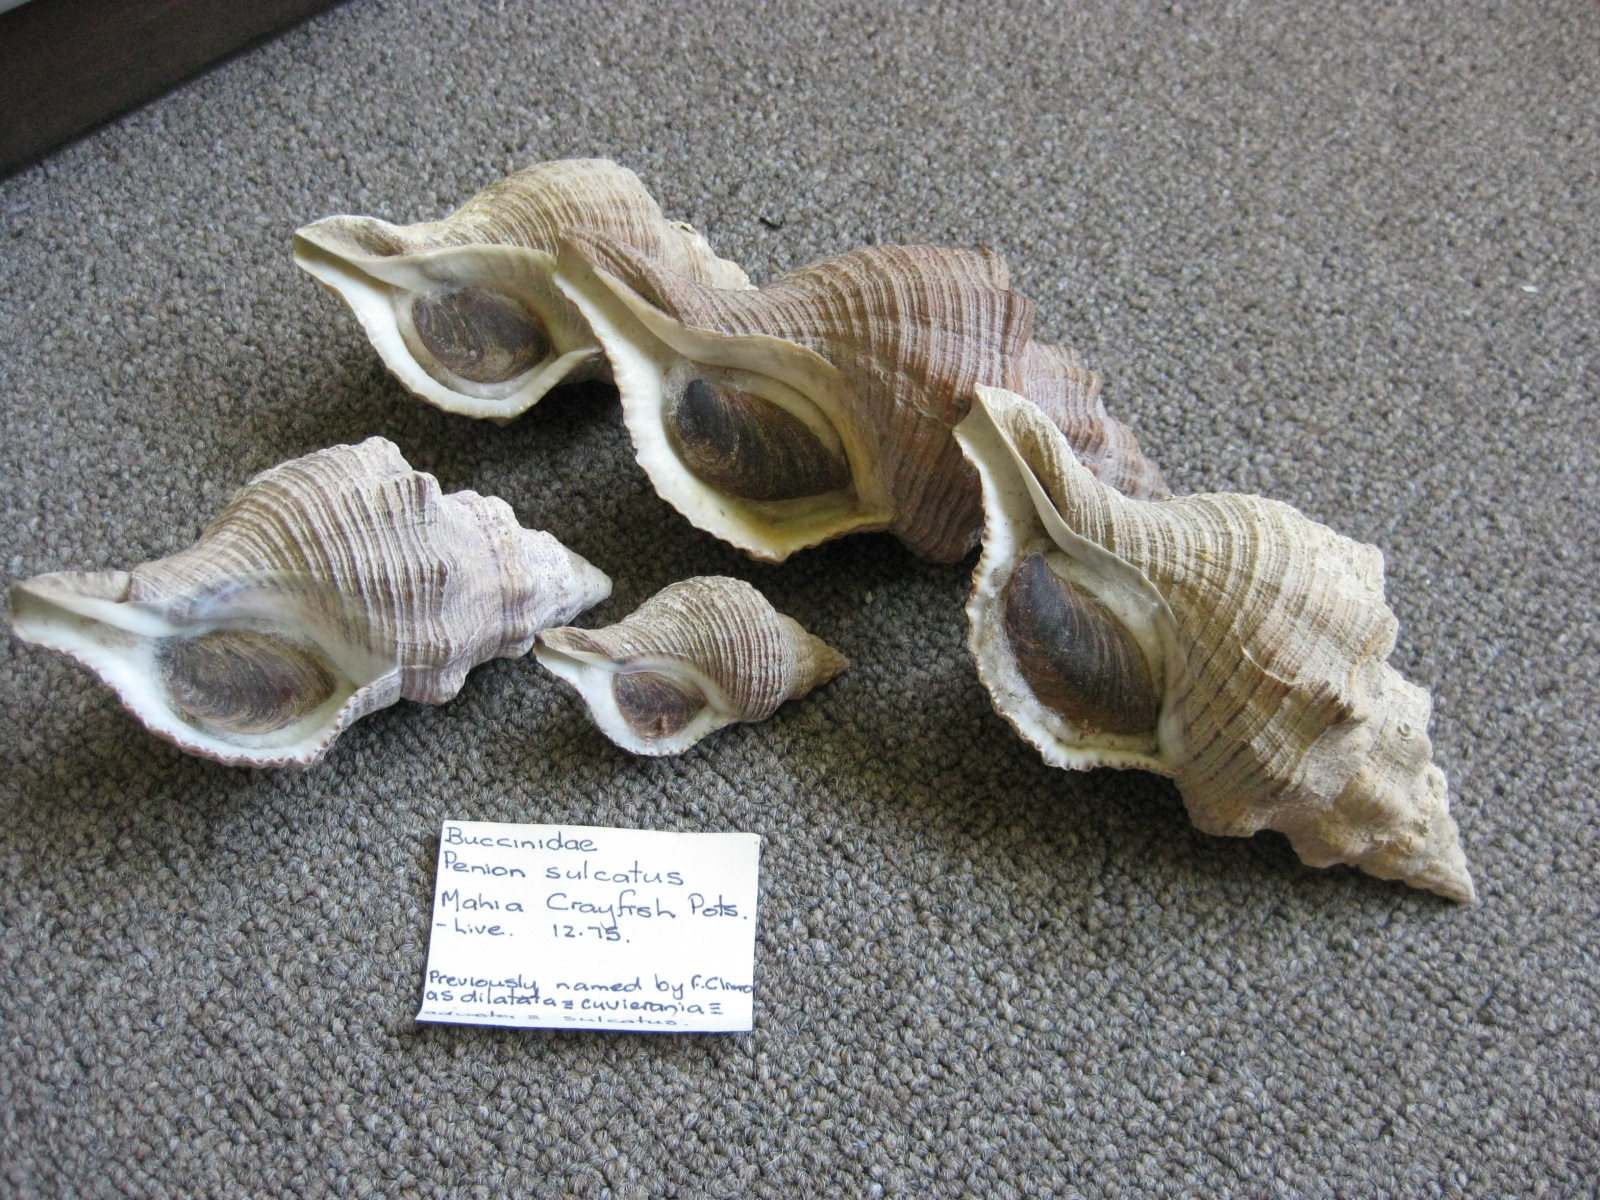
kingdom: Animalia
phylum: Mollusca
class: Gastropoda
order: Neogastropoda
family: Austrosiphonidae
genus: Penion
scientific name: Penion sulcatus
